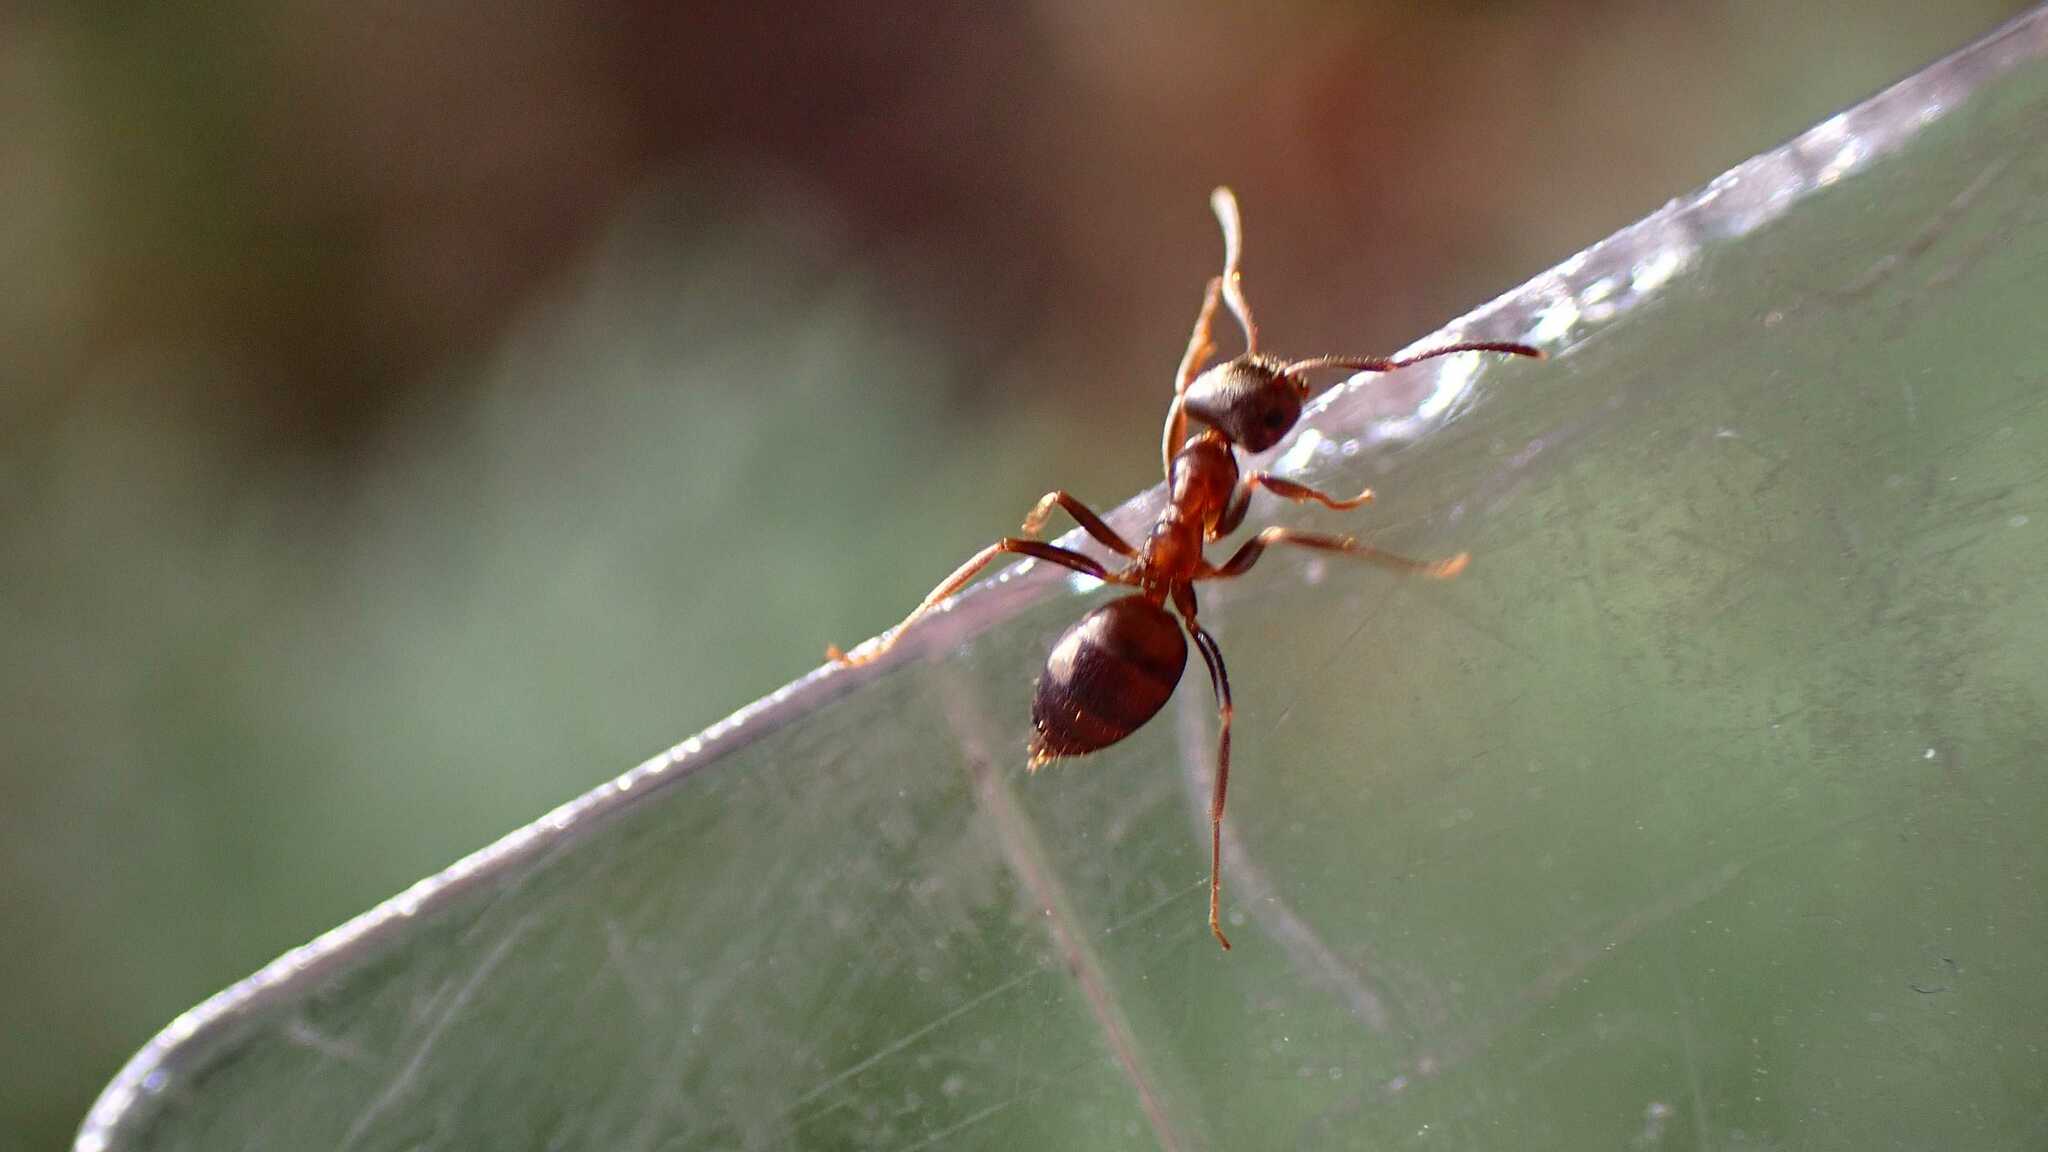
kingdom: Animalia
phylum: Arthropoda
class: Insecta
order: Hymenoptera
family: Formicidae
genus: Lasius
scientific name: Lasius
